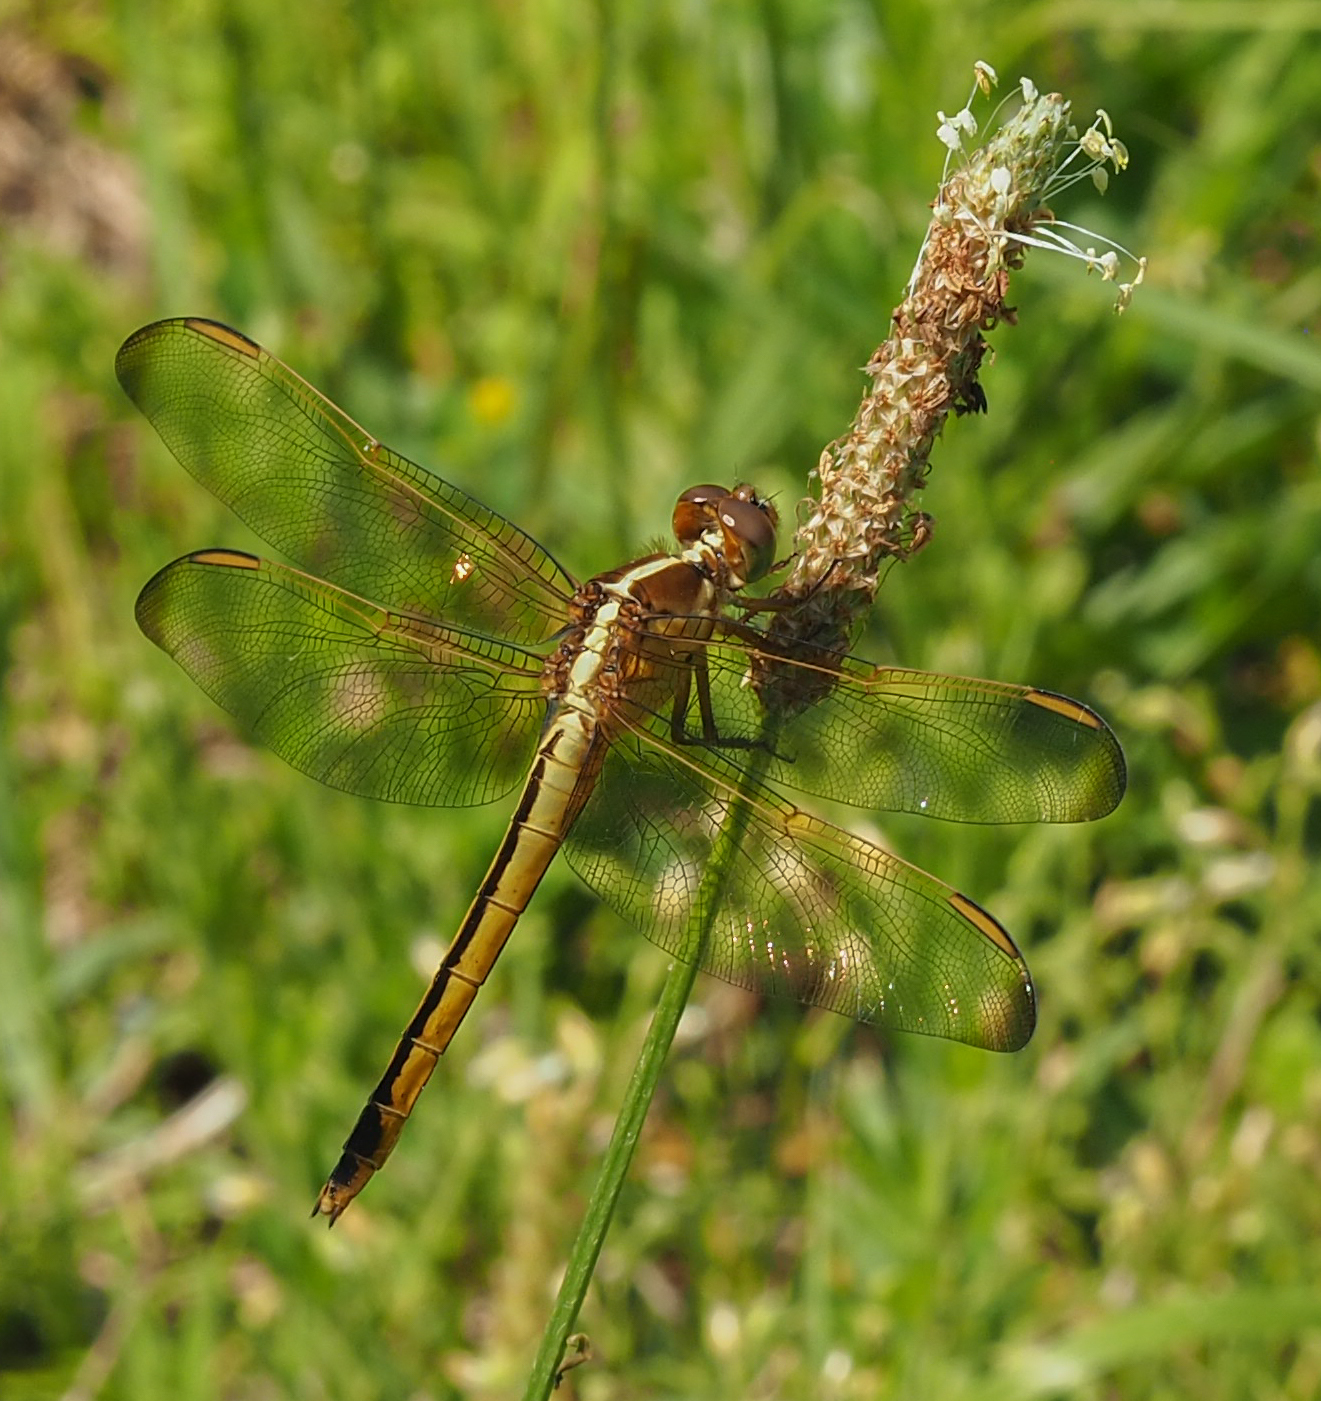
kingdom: Animalia
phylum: Arthropoda
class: Insecta
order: Odonata
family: Libellulidae
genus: Libellula
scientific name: Libellula needhami
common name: Needham's skimmer
